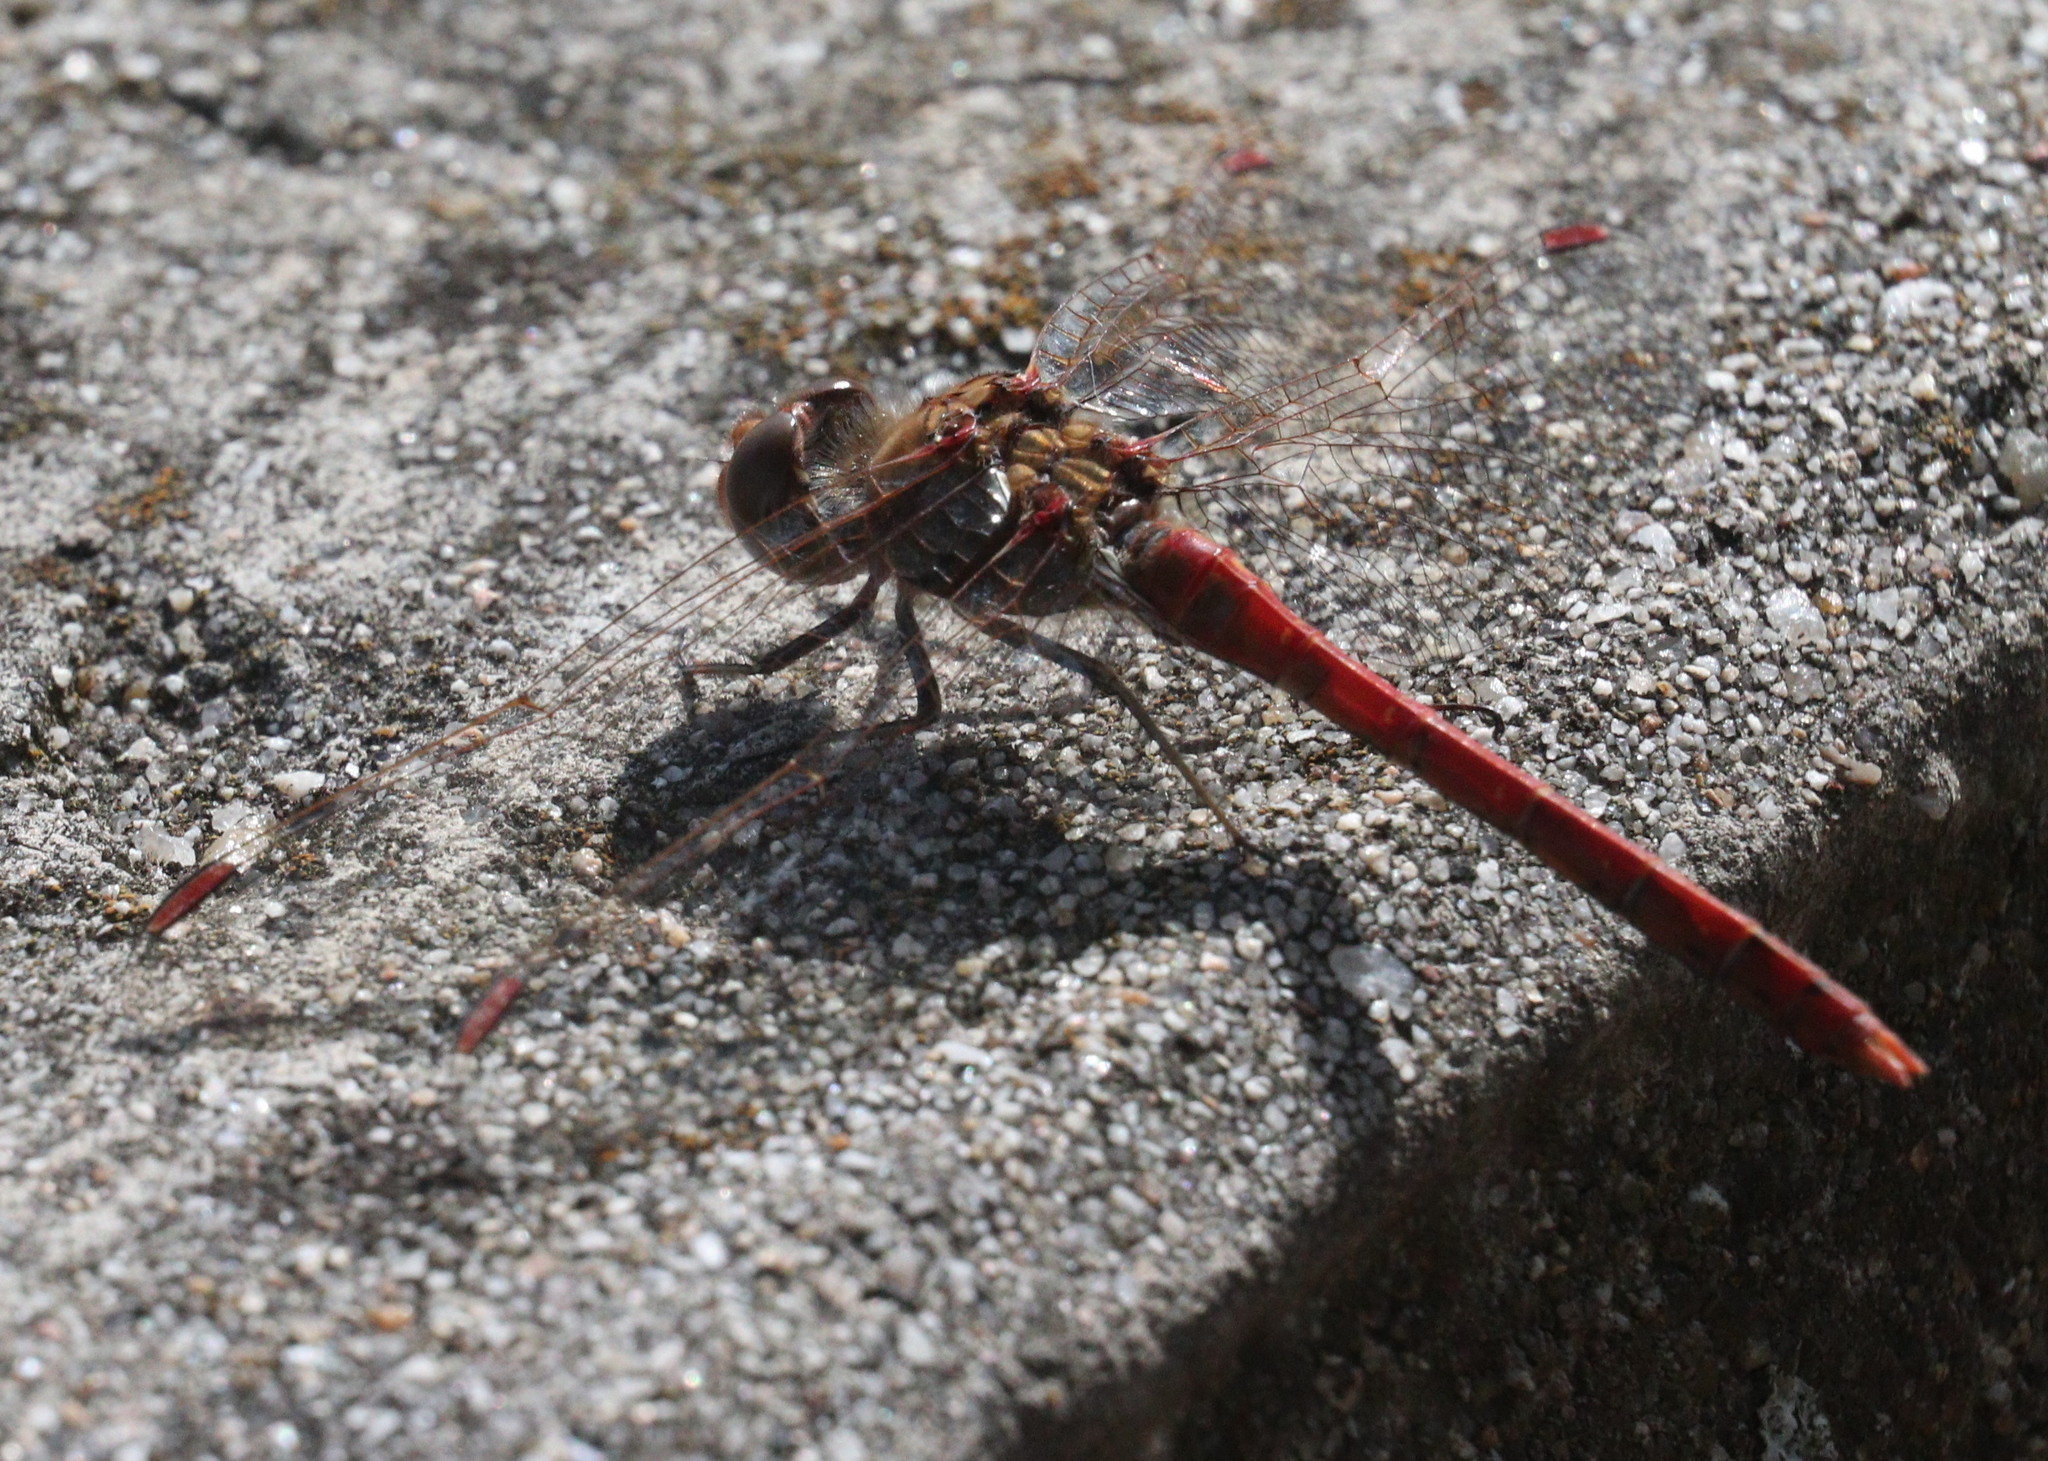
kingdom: Animalia
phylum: Arthropoda
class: Insecta
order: Odonata
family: Libellulidae
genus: Sympetrum
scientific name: Sympetrum fonscolombii
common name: Red-veined darter
